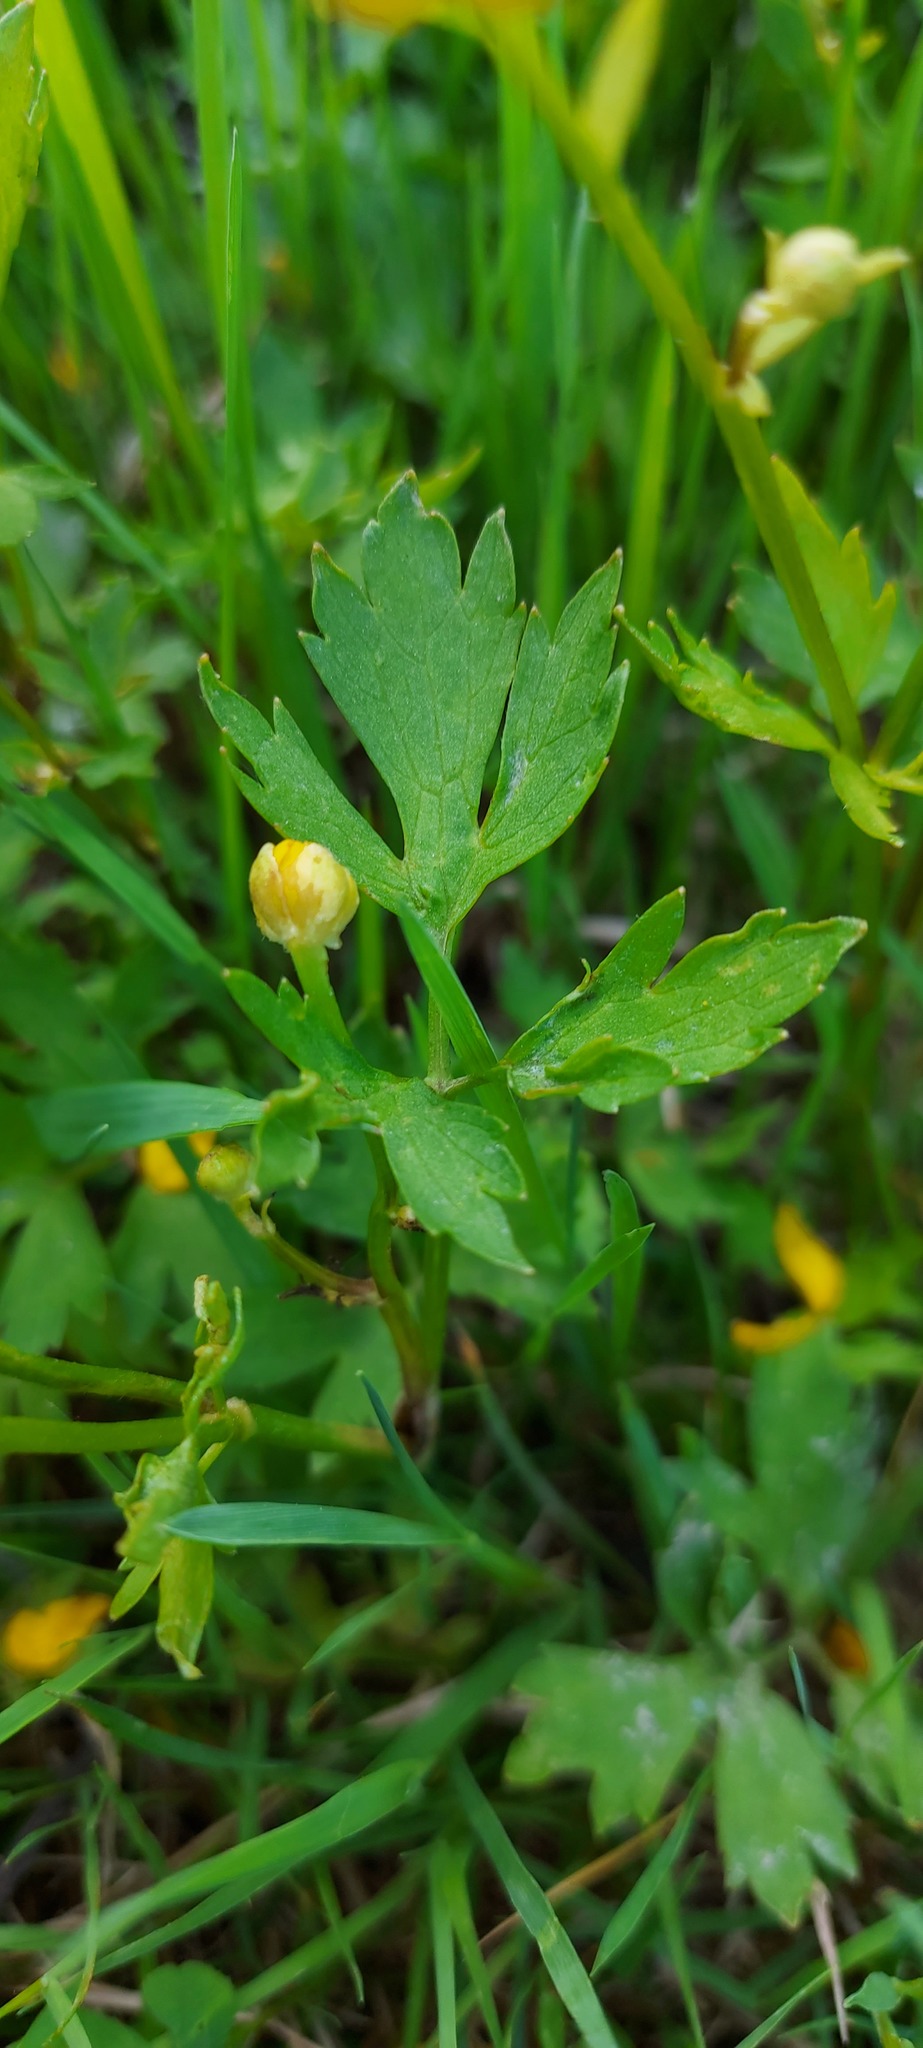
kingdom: Plantae
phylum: Tracheophyta
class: Magnoliopsida
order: Ranunculales
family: Ranunculaceae
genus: Ranunculus
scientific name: Ranunculus repens
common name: Creeping buttercup
